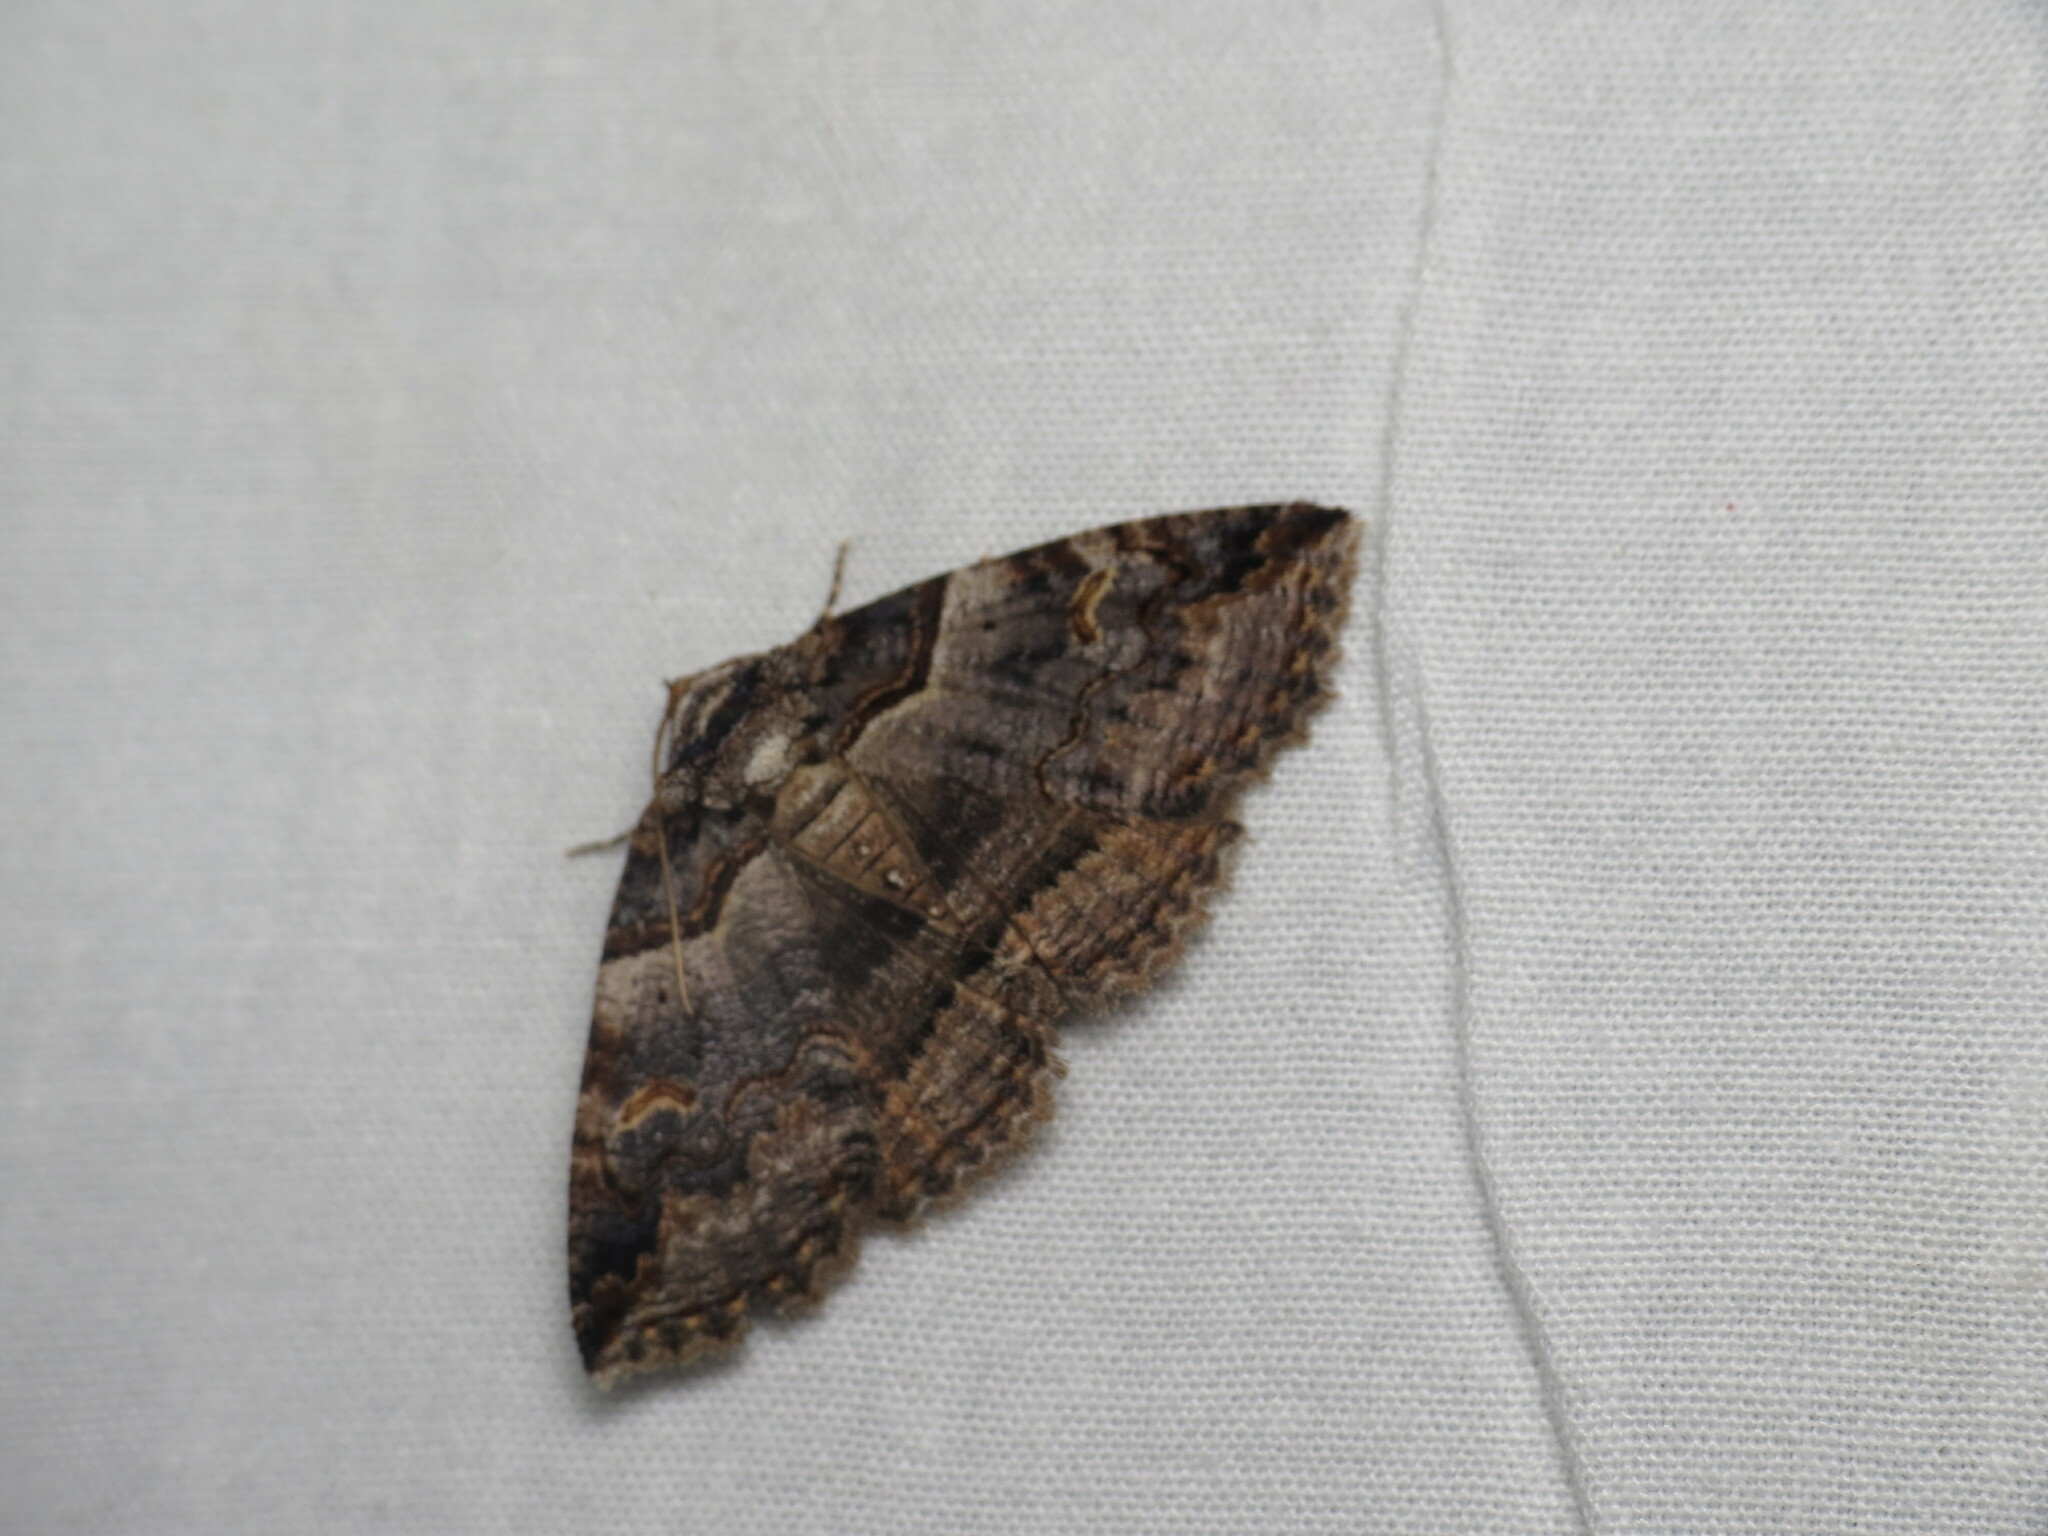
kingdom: Animalia
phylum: Arthropoda
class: Insecta
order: Lepidoptera
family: Erebidae
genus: Zale
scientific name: Zale lunifera
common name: Bold-based zale moth
